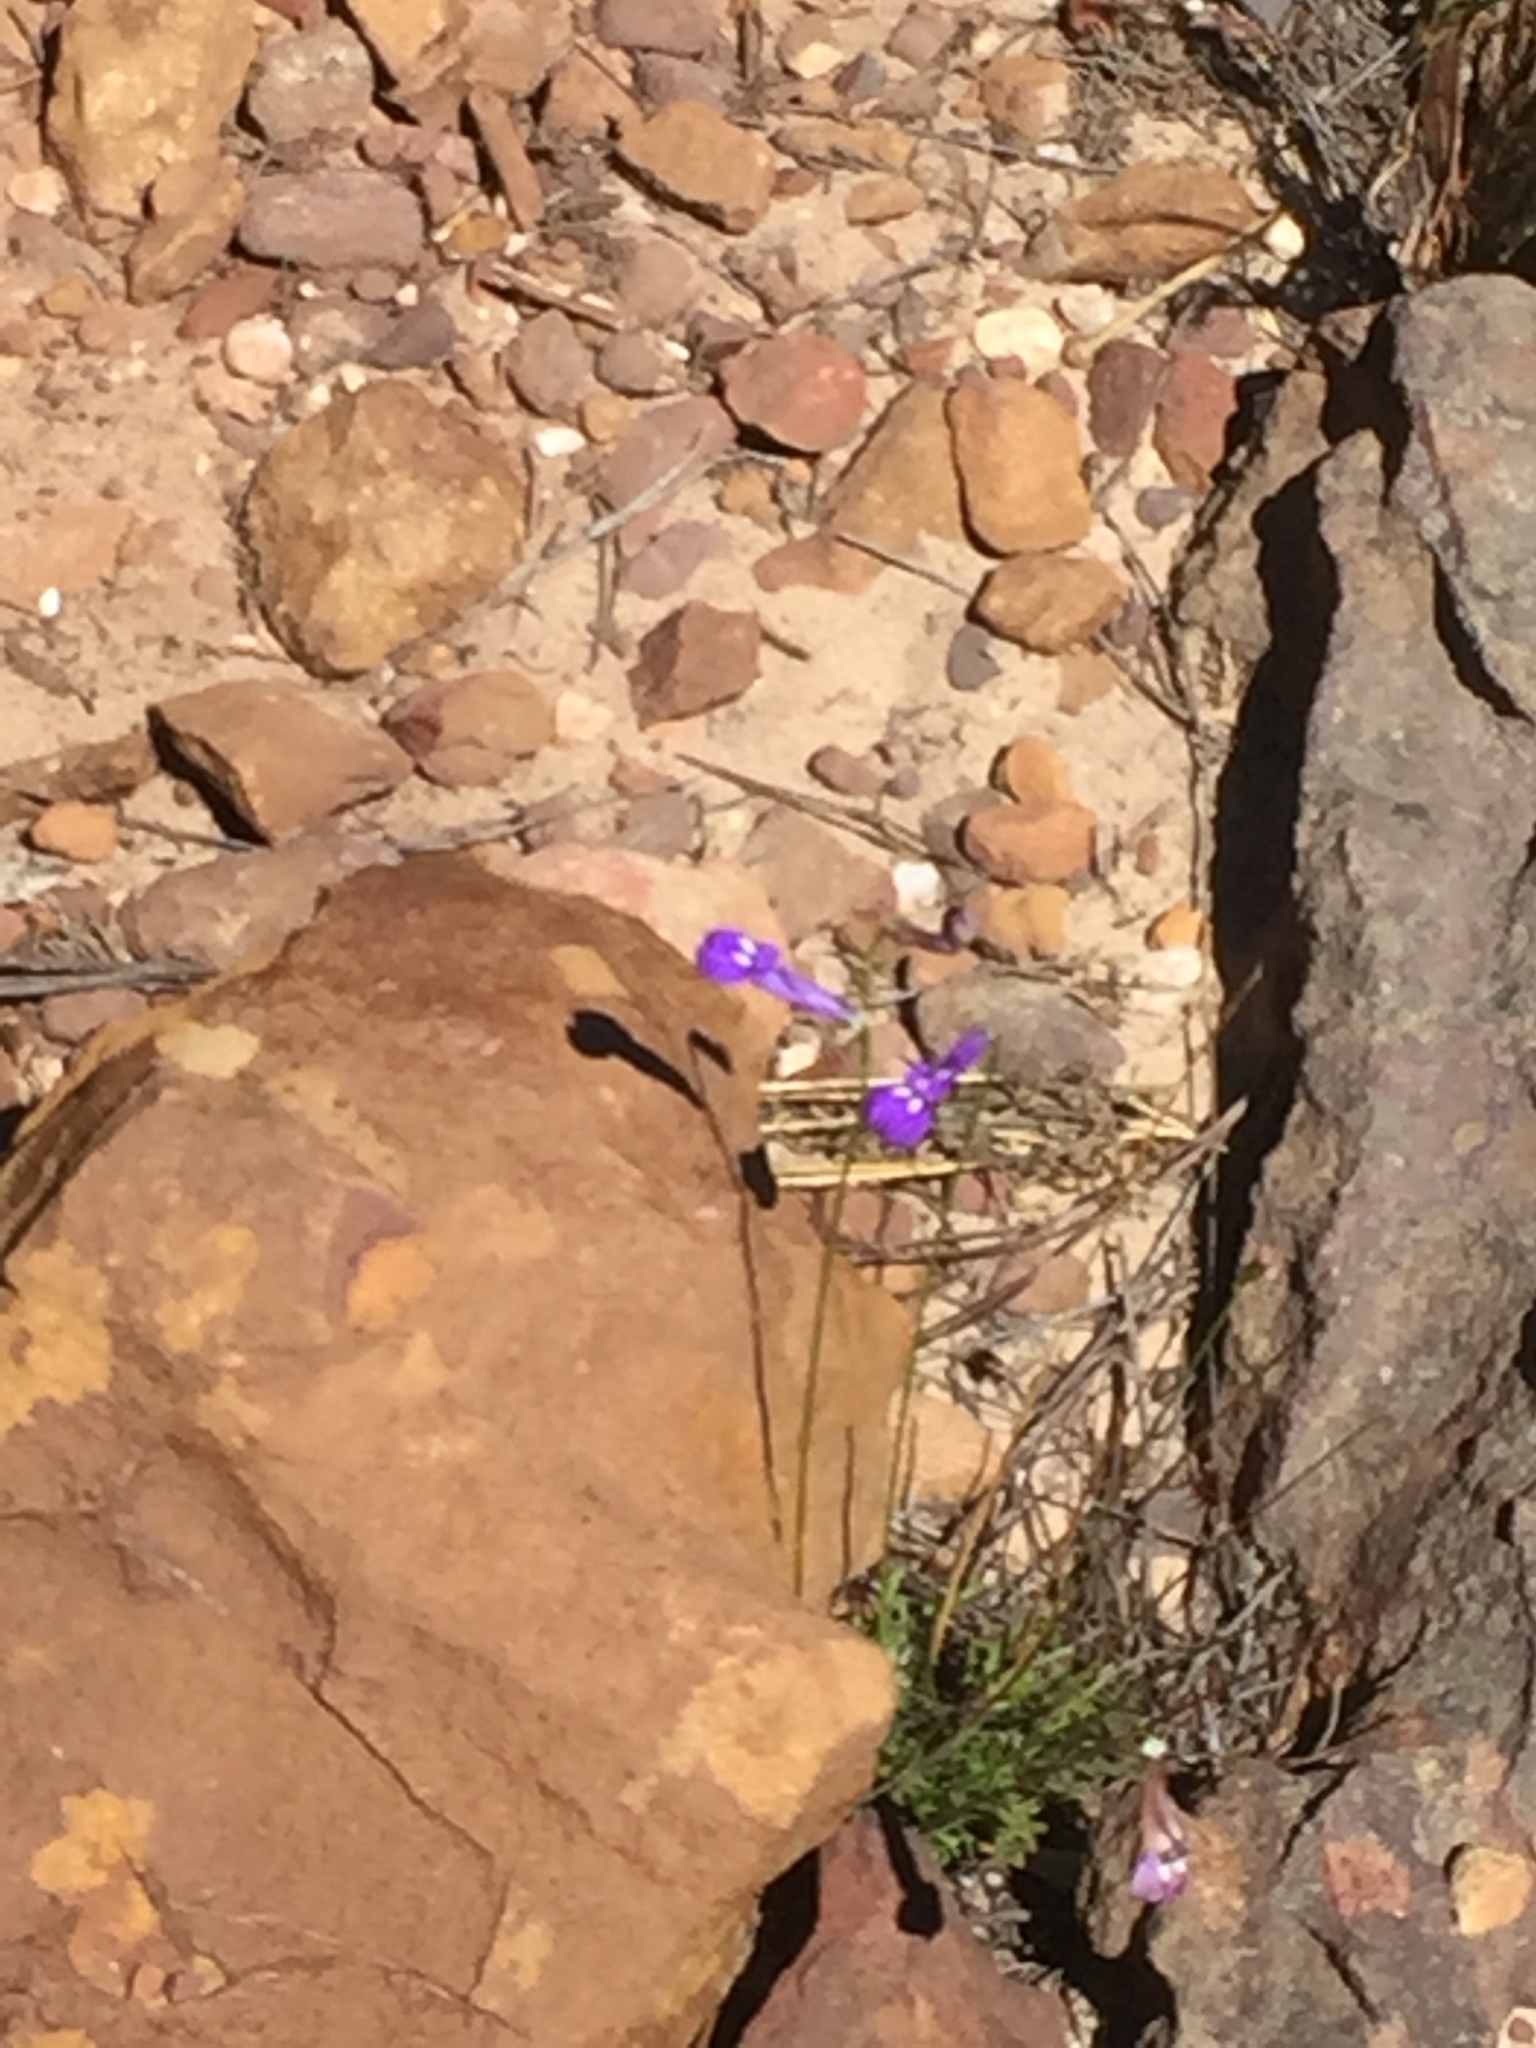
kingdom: Plantae
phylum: Tracheophyta
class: Magnoliopsida
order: Asterales
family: Campanulaceae
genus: Lobelia
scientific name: Lobelia coronopifolia
